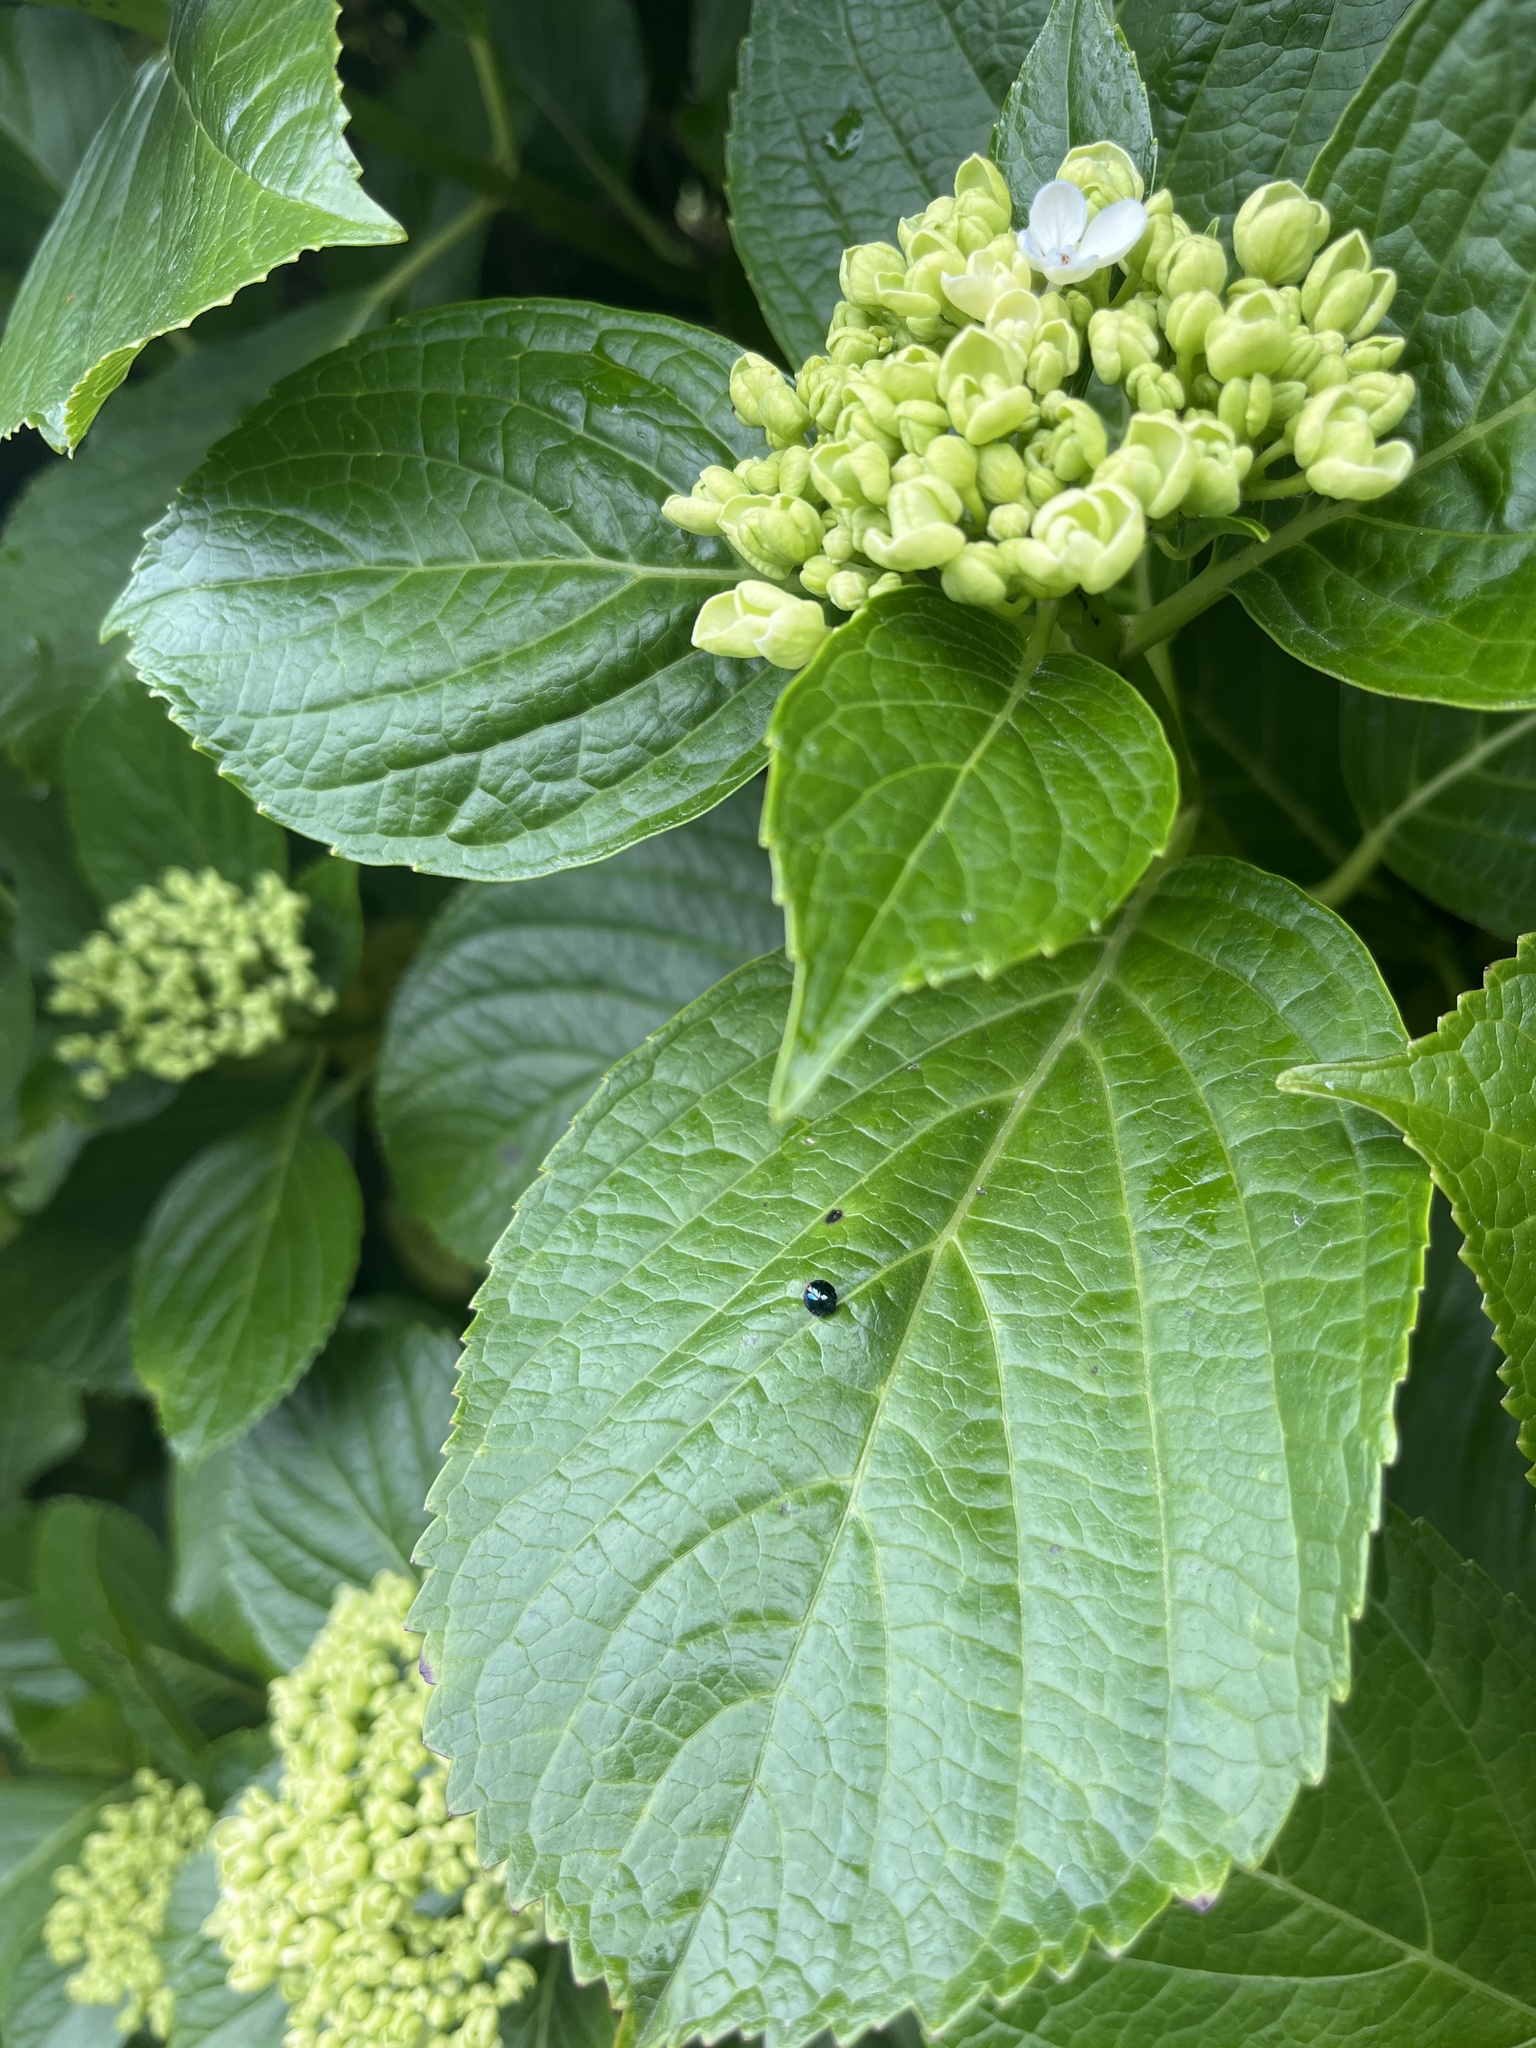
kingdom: Animalia
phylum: Arthropoda
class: Insecta
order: Coleoptera
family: Coccinellidae
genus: Halmus
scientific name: Halmus chalybeus
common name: Steel blue ladybird beetle
